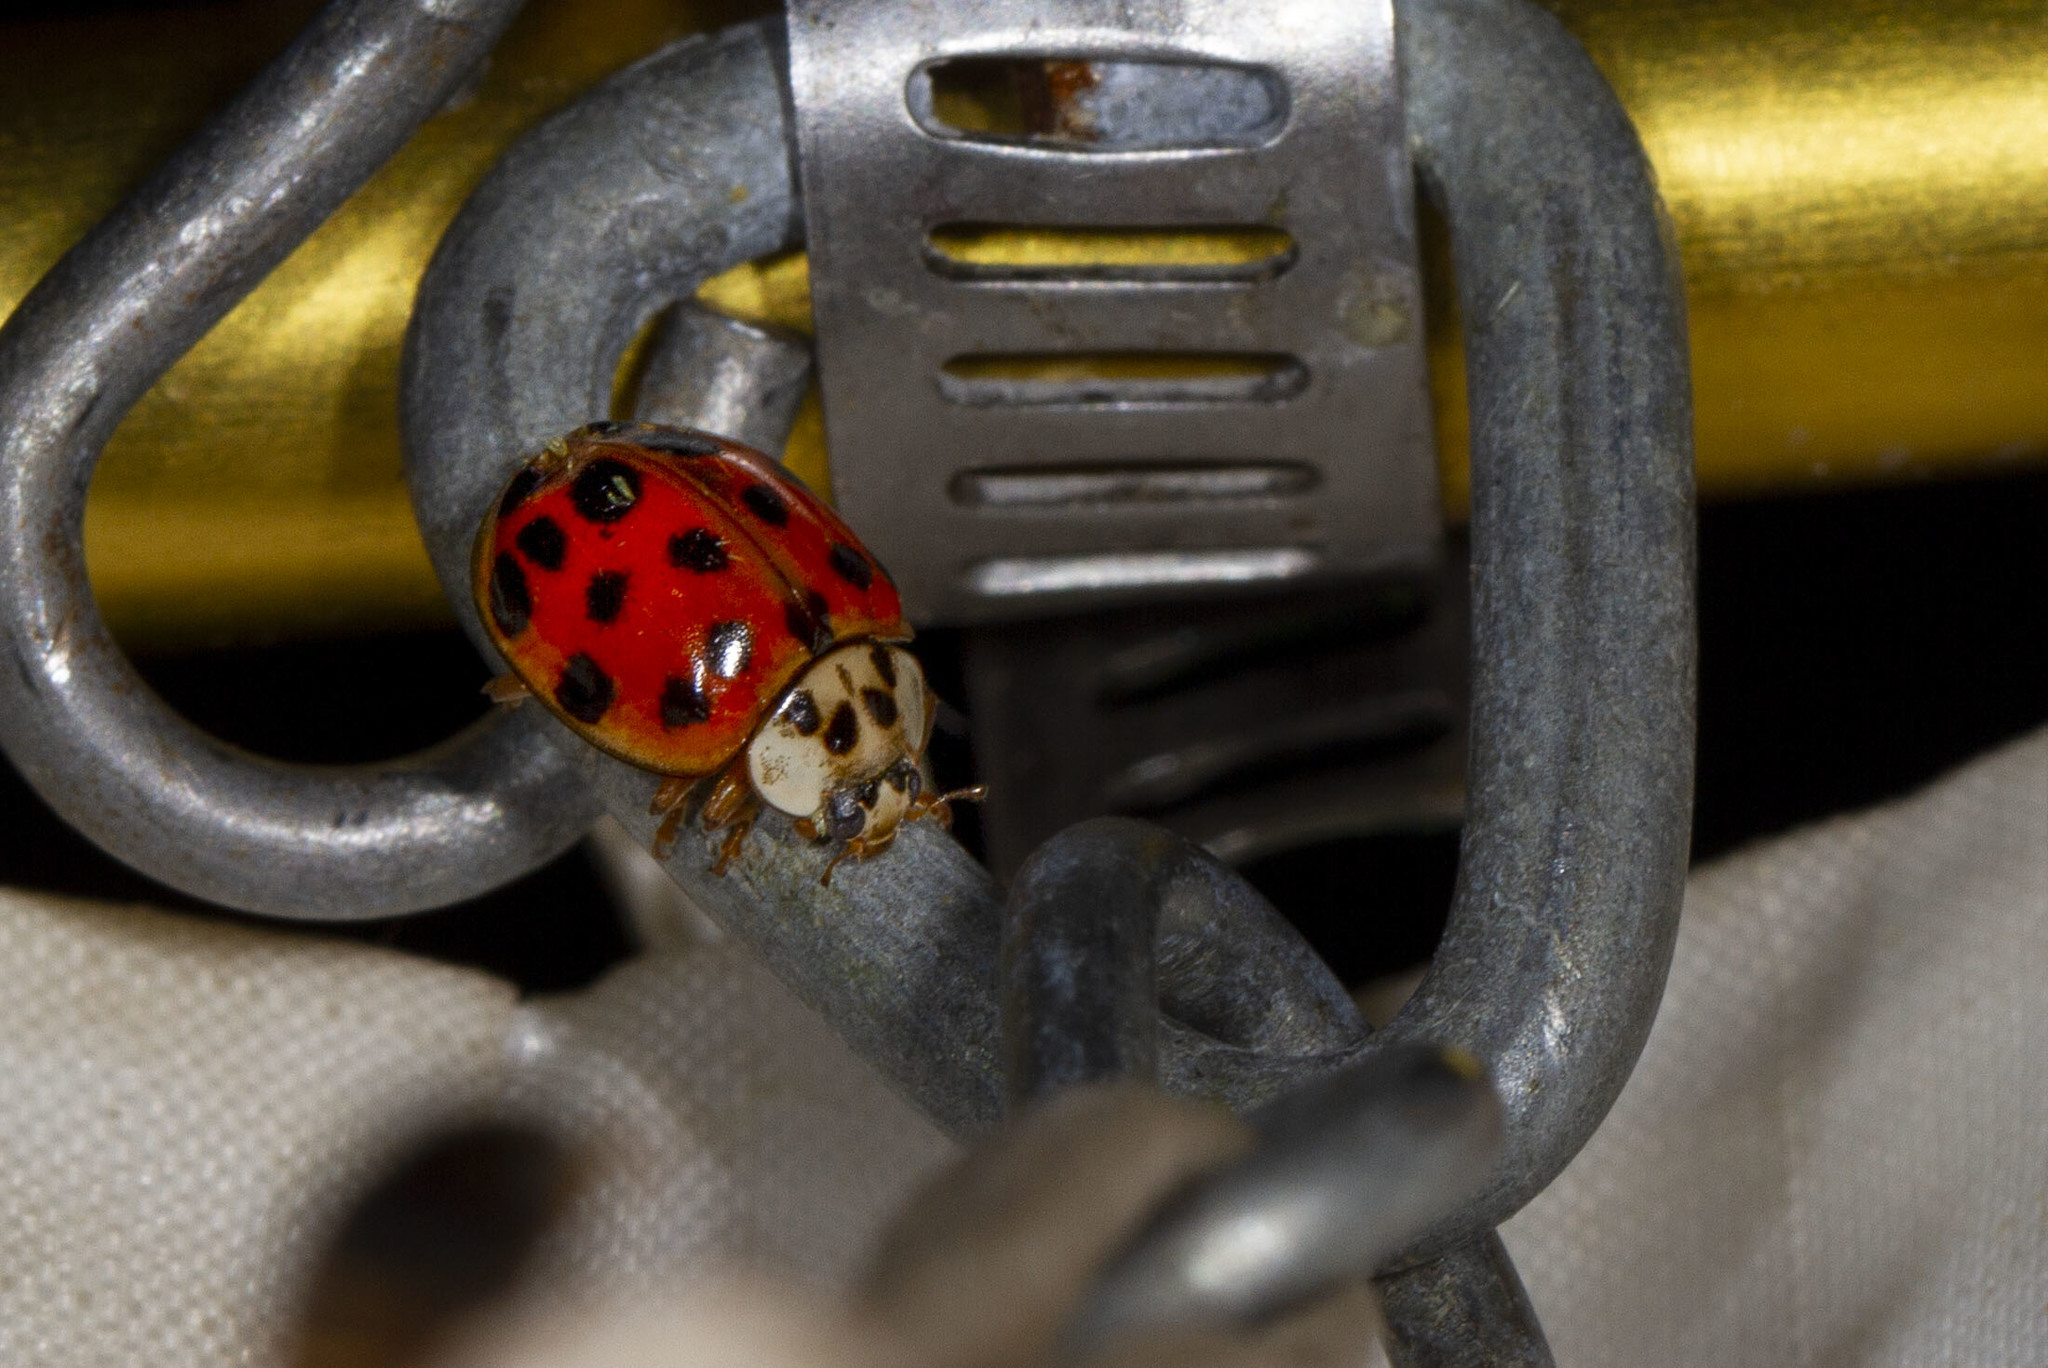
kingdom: Animalia
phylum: Arthropoda
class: Insecta
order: Coleoptera
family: Coccinellidae
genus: Harmonia
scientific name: Harmonia axyridis
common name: Harlequin ladybird
